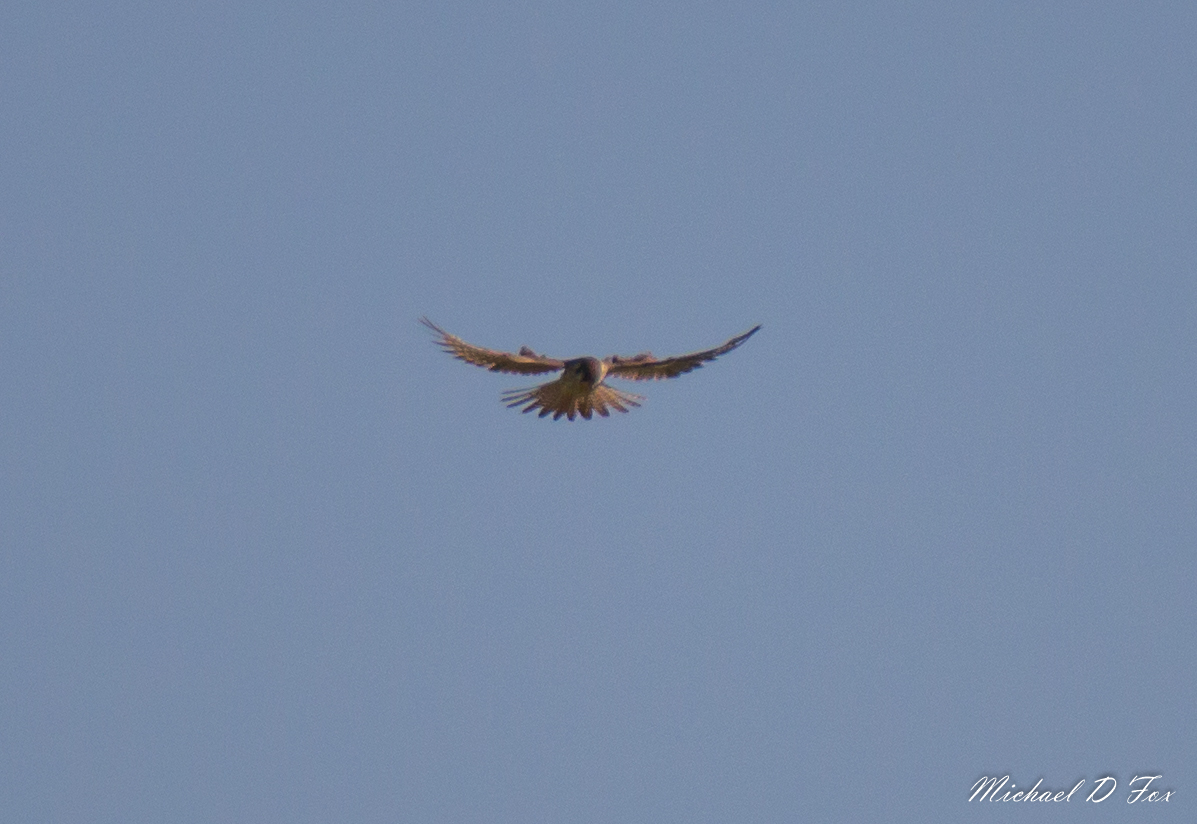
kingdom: Animalia
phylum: Chordata
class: Aves
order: Falconiformes
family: Falconidae
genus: Falco
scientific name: Falco sparverius
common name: American kestrel
